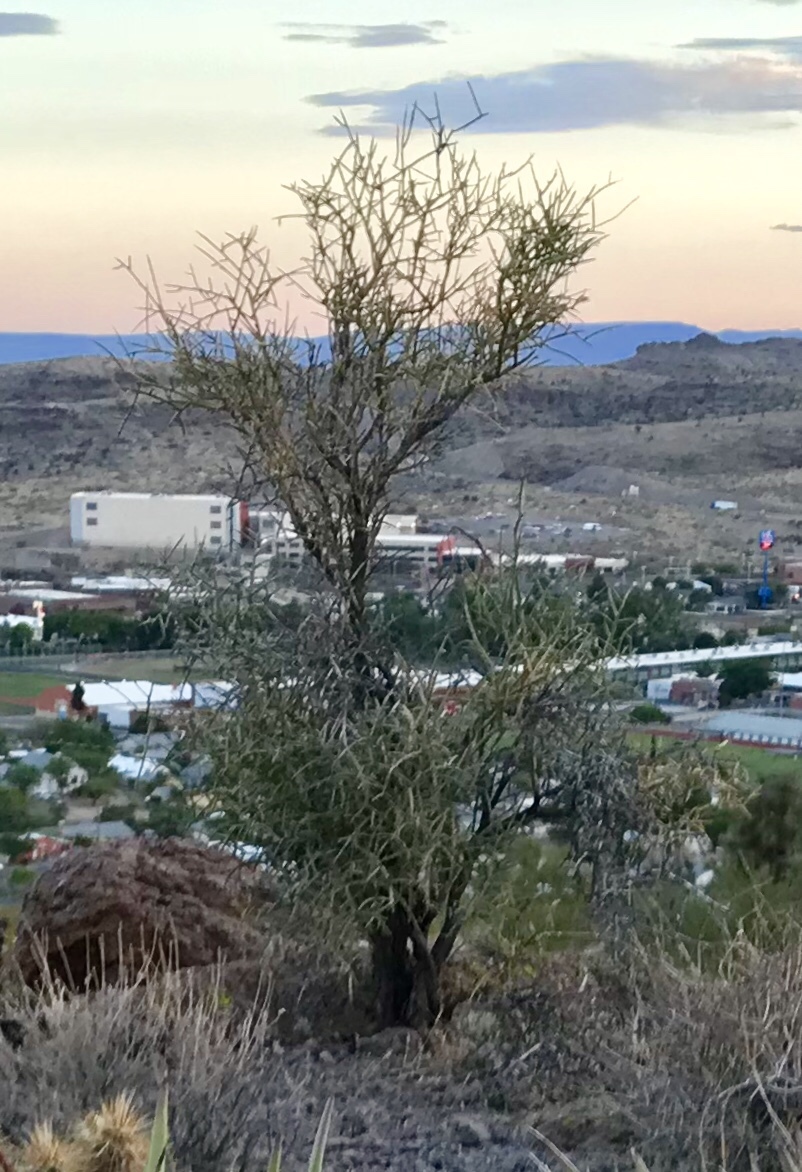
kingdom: Plantae
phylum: Tracheophyta
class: Magnoliopsida
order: Celastrales
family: Celastraceae
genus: Canotia
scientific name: Canotia holacantha
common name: Crucifixion thorns
